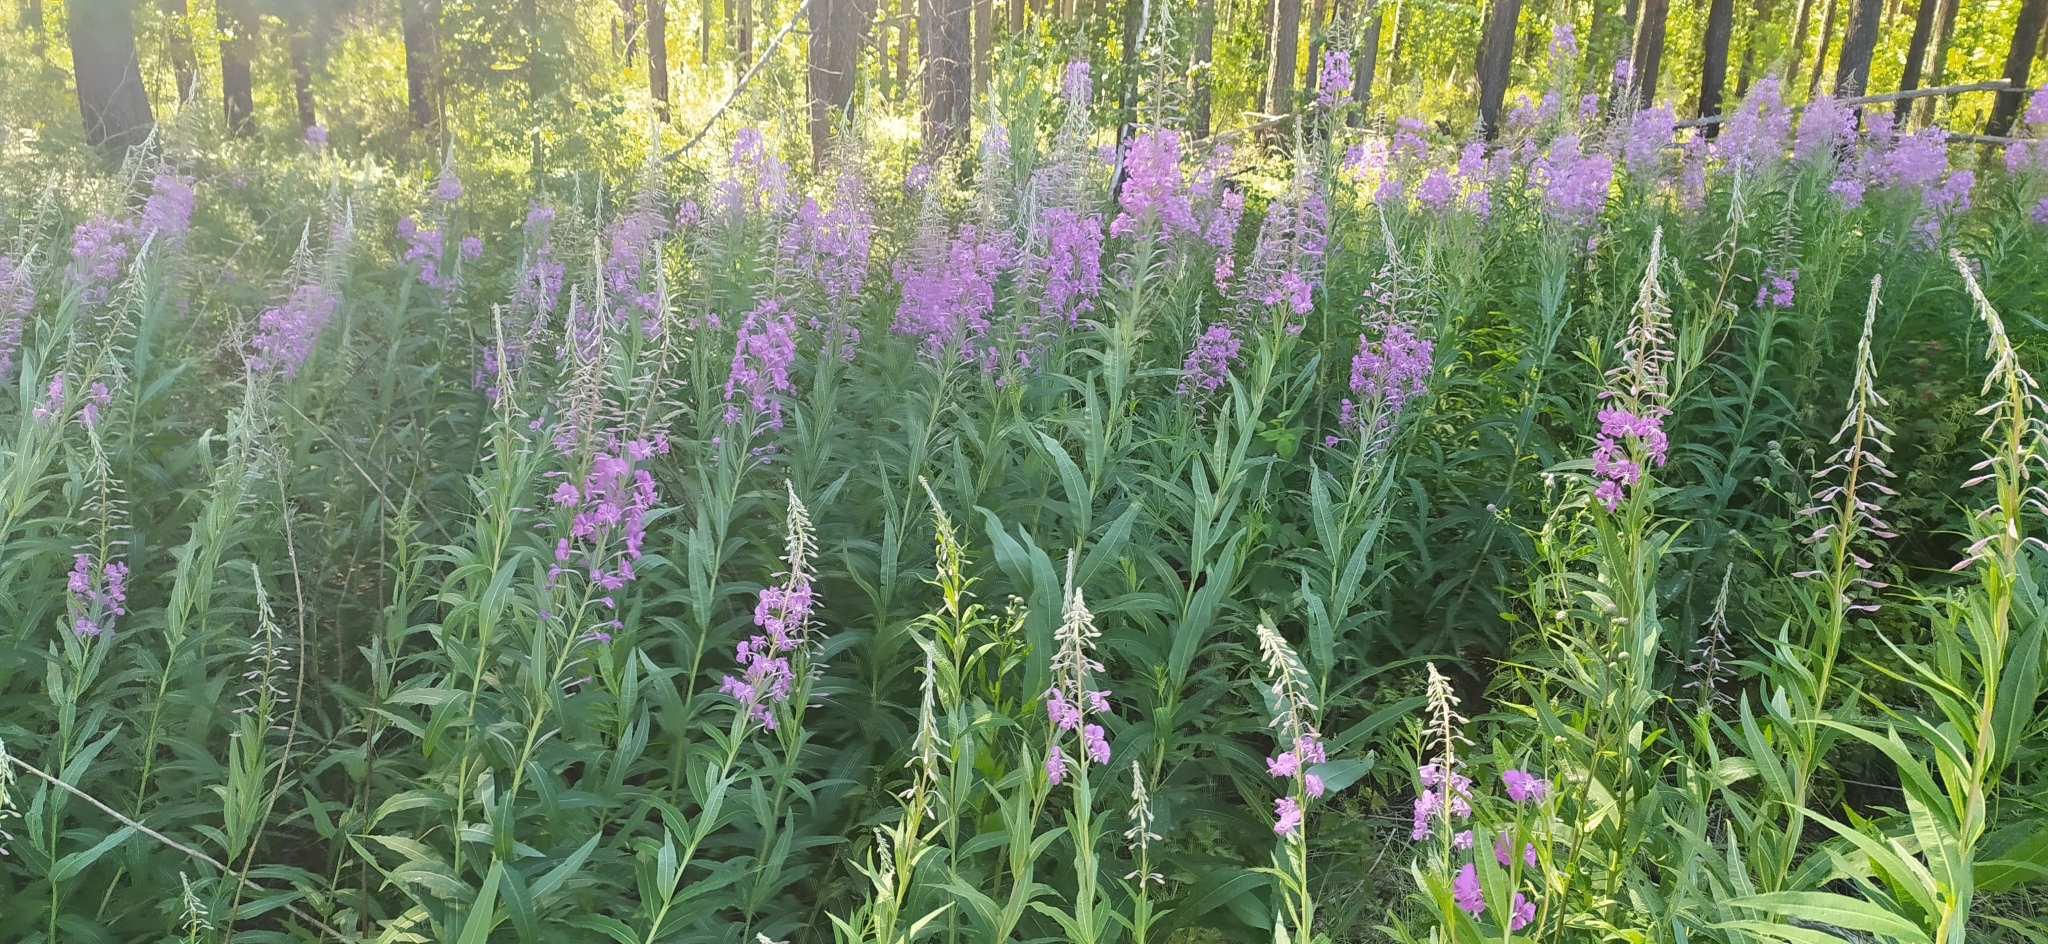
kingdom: Plantae
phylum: Tracheophyta
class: Magnoliopsida
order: Myrtales
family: Onagraceae
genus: Chamaenerion
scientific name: Chamaenerion angustifolium
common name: Fireweed
